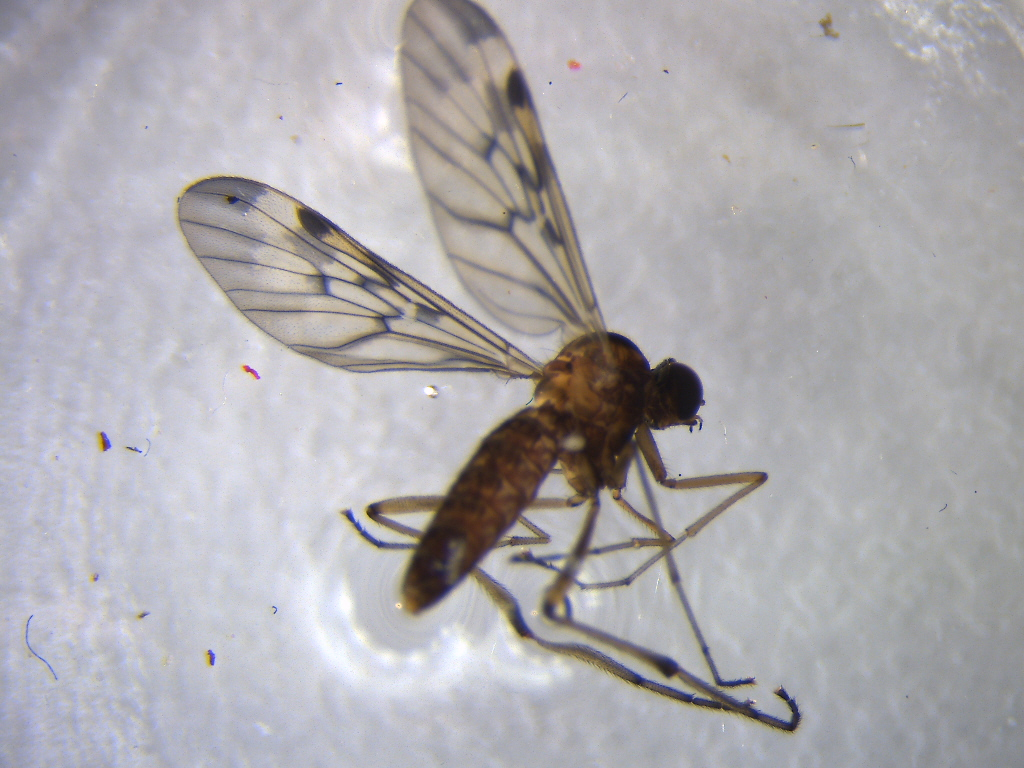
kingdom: Animalia
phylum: Arthropoda
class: Insecta
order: Diptera
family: Anisopodidae
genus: Sylvicola
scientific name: Sylvicola undulatus
